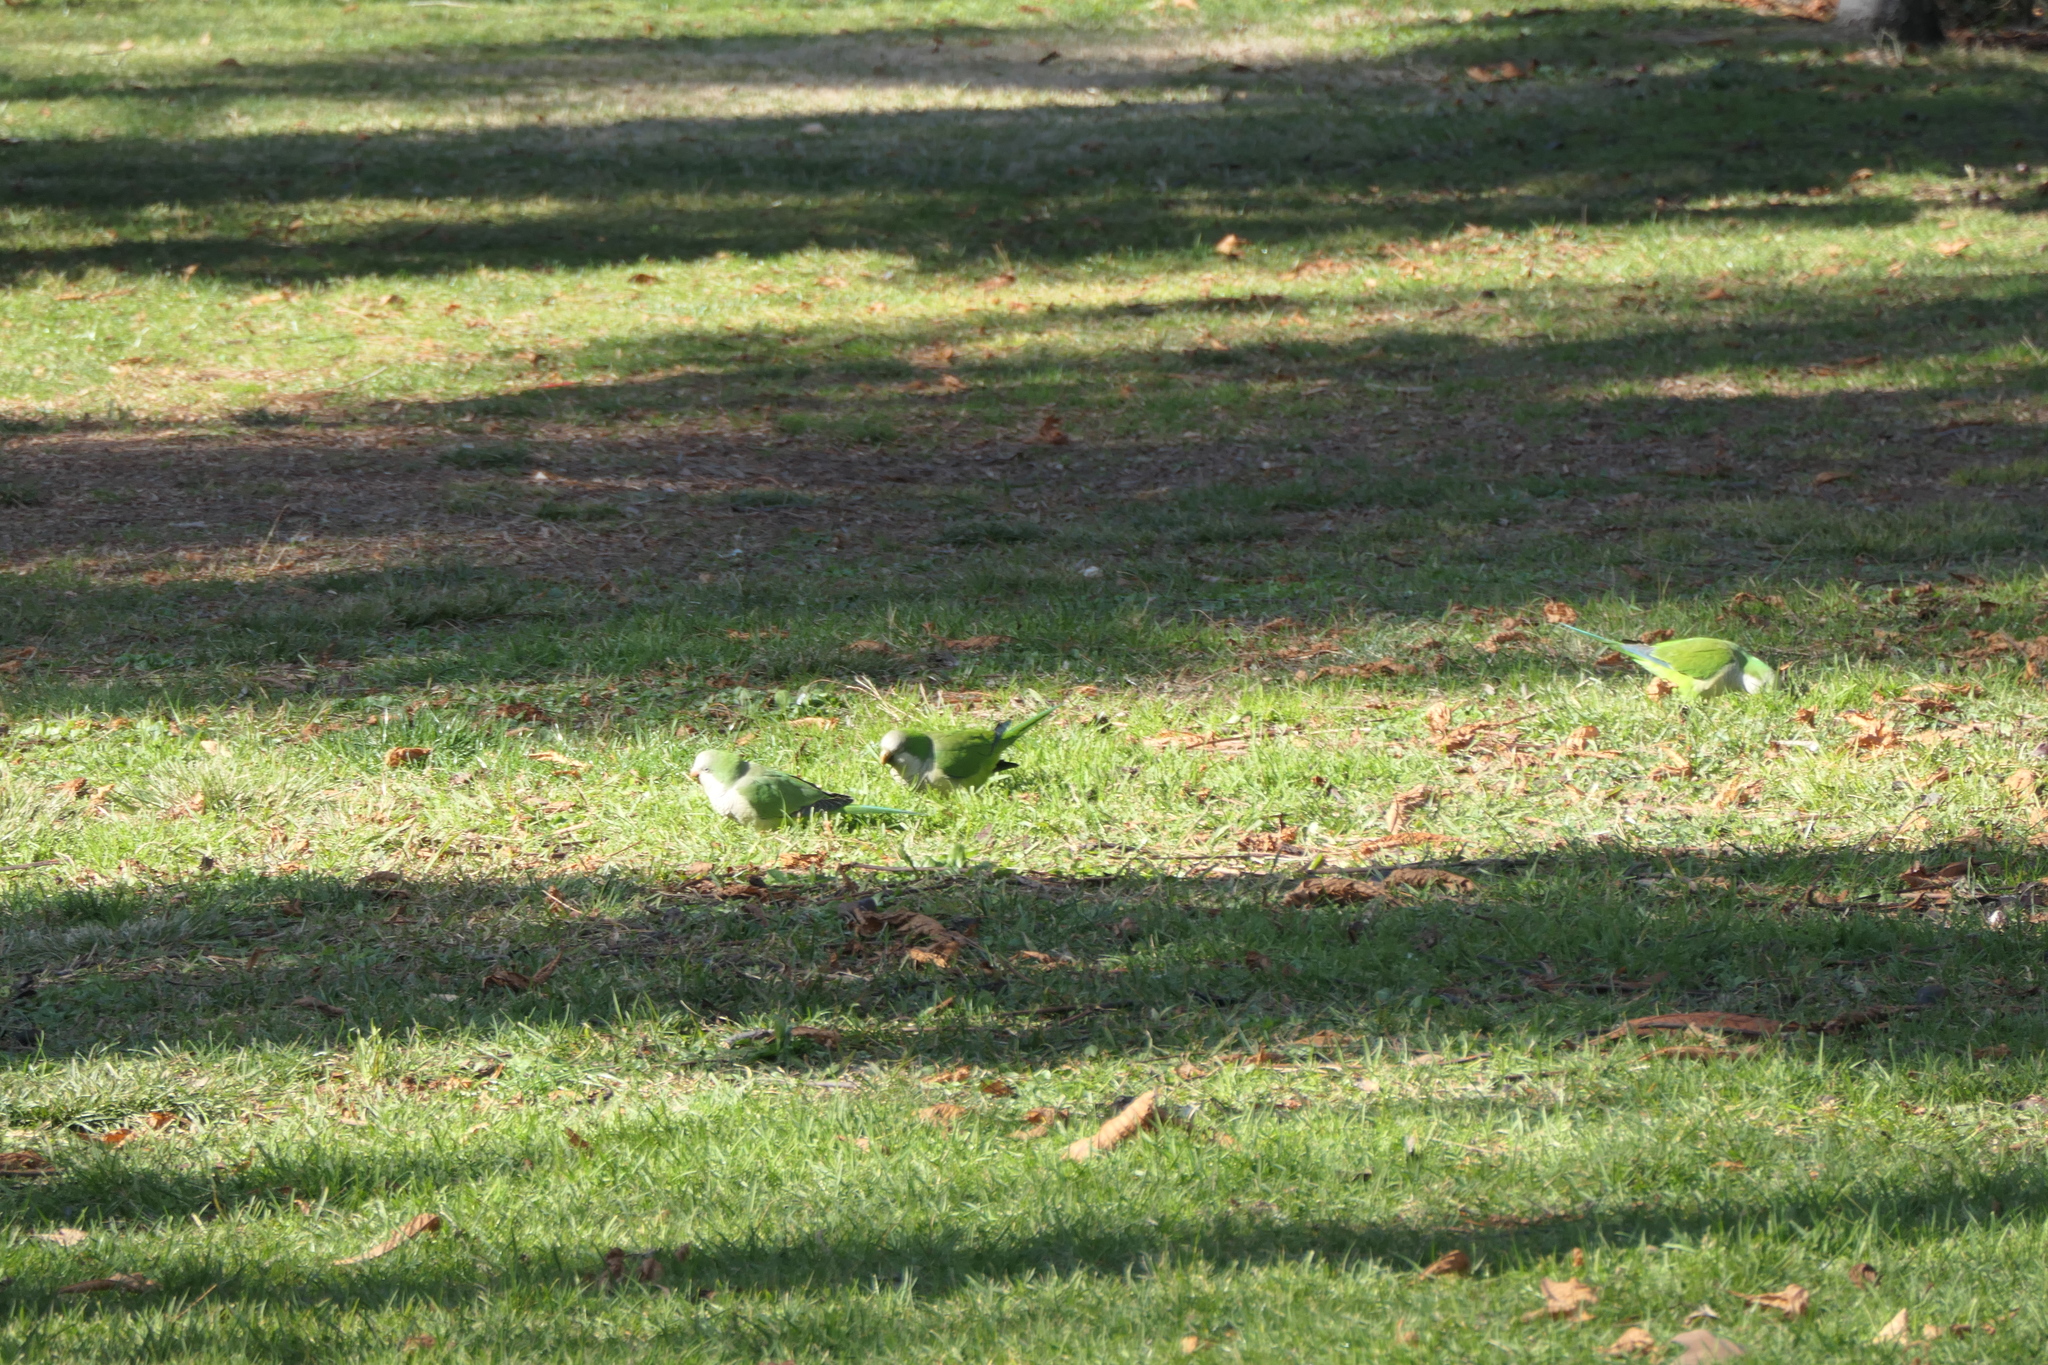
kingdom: Animalia
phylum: Chordata
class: Aves
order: Psittaciformes
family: Psittacidae
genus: Myiopsitta
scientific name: Myiopsitta monachus
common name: Monk parakeet
